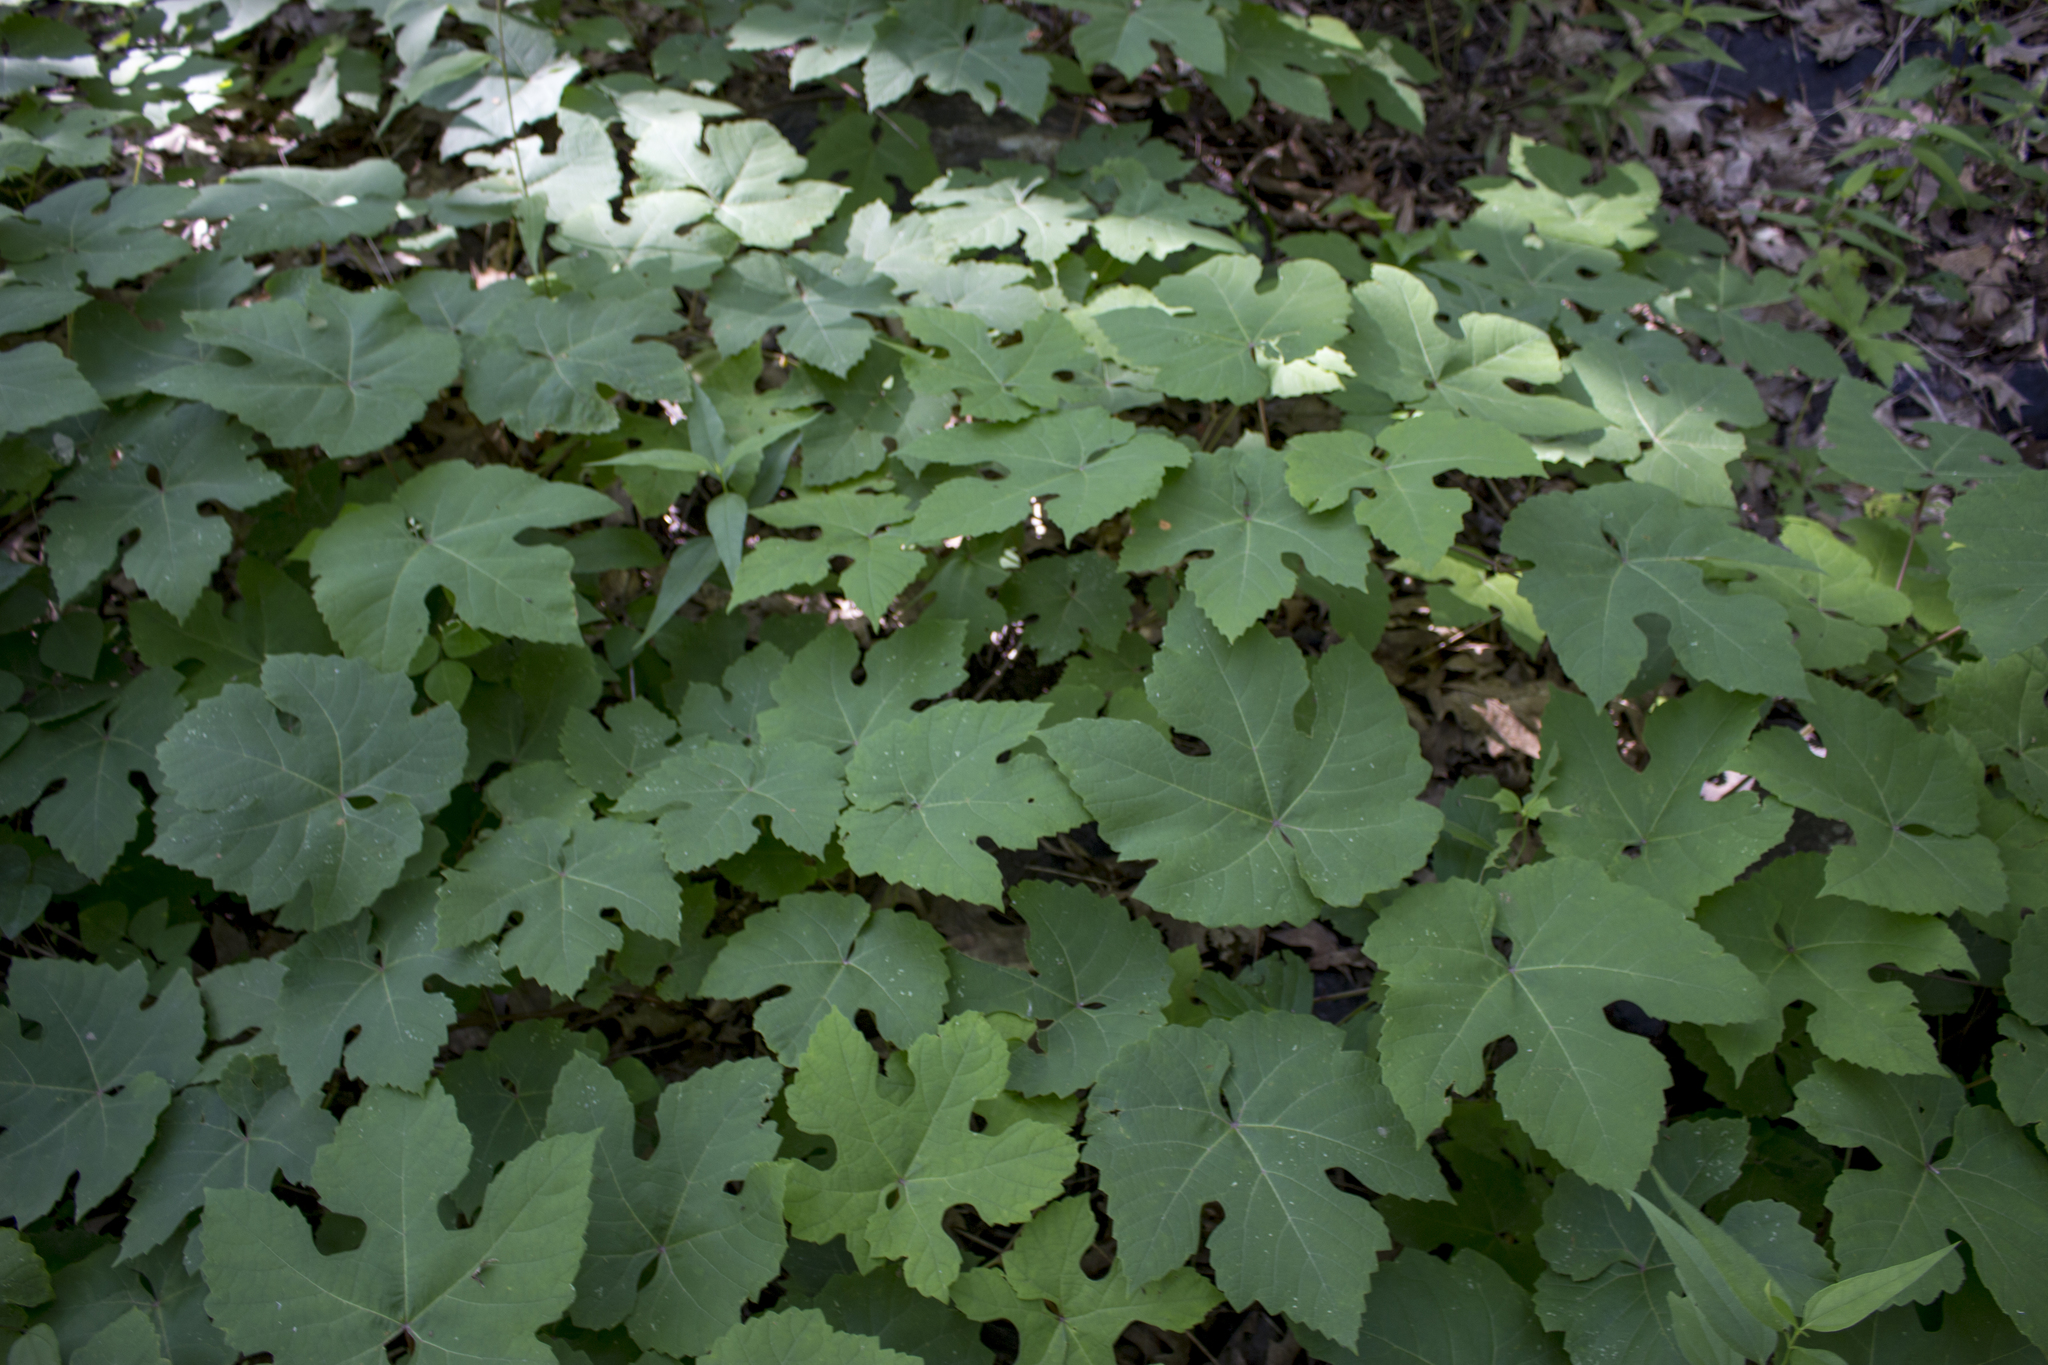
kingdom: Plantae
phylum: Tracheophyta
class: Magnoliopsida
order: Vitales
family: Vitaceae
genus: Vitis
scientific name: Vitis aestivalis
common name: Pigeon grape
